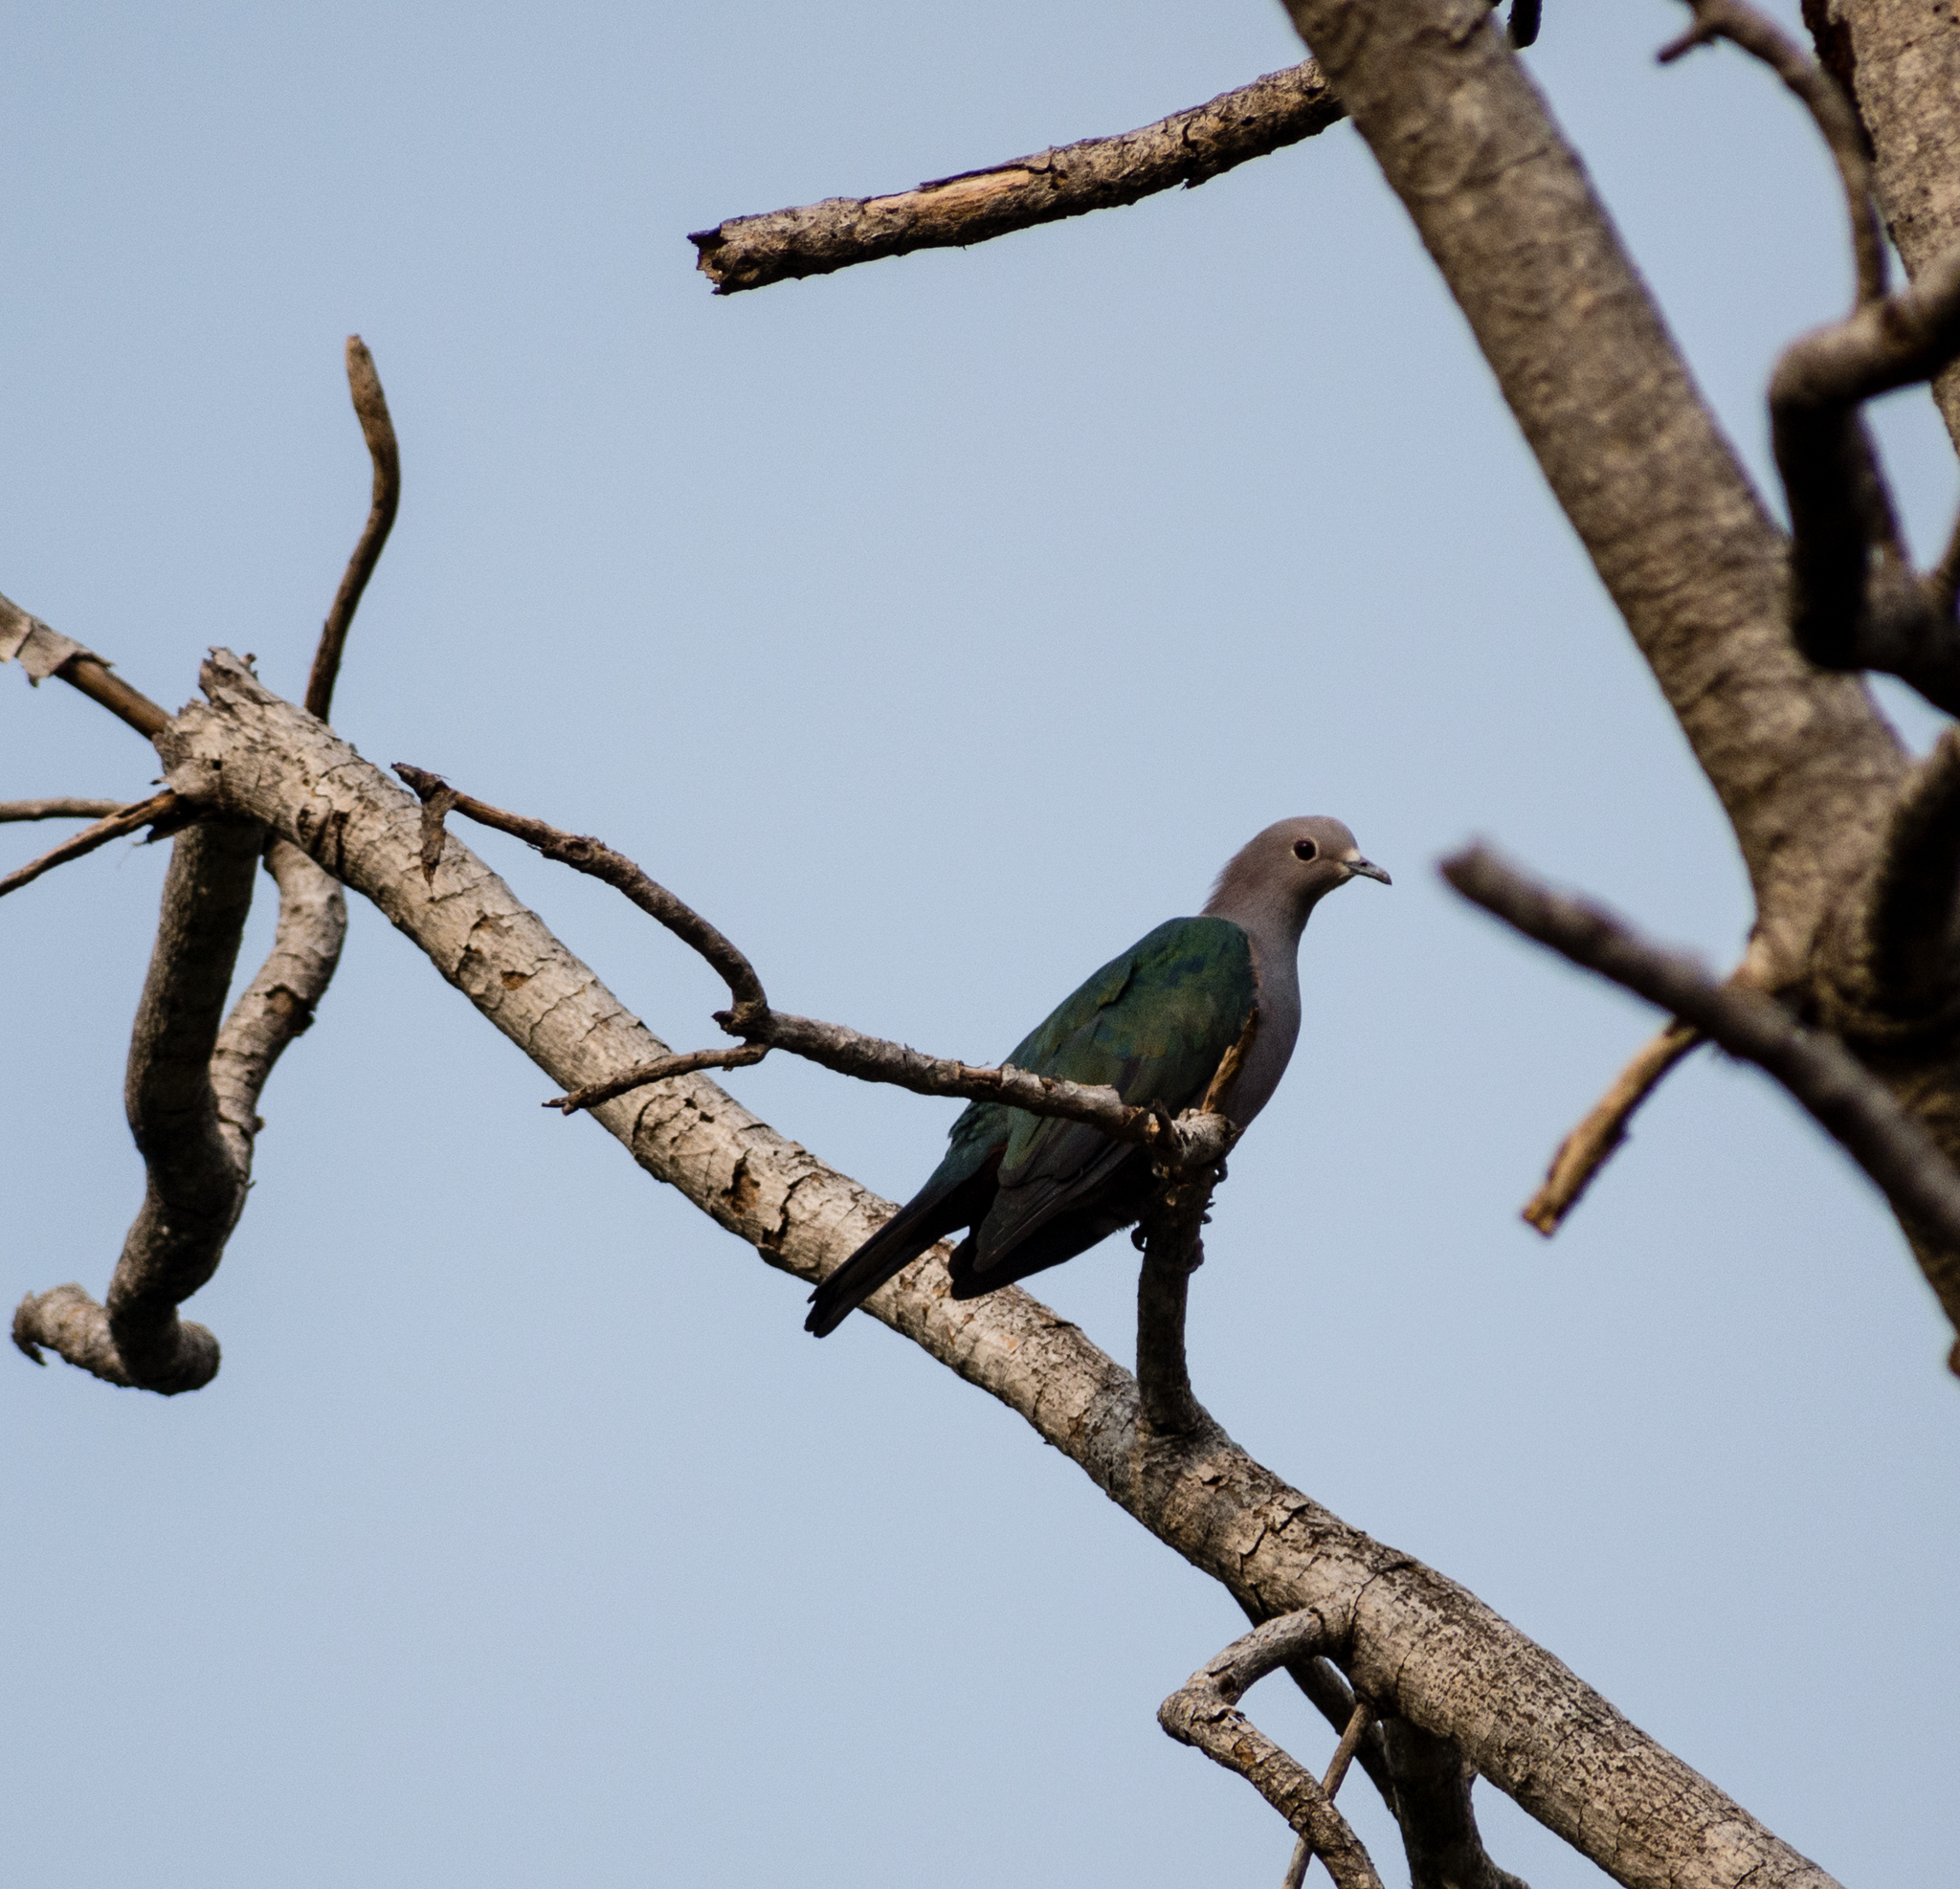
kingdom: Animalia
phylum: Chordata
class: Aves
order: Columbiformes
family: Columbidae
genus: Ducula
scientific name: Ducula aenea
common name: Green imperial pigeon
